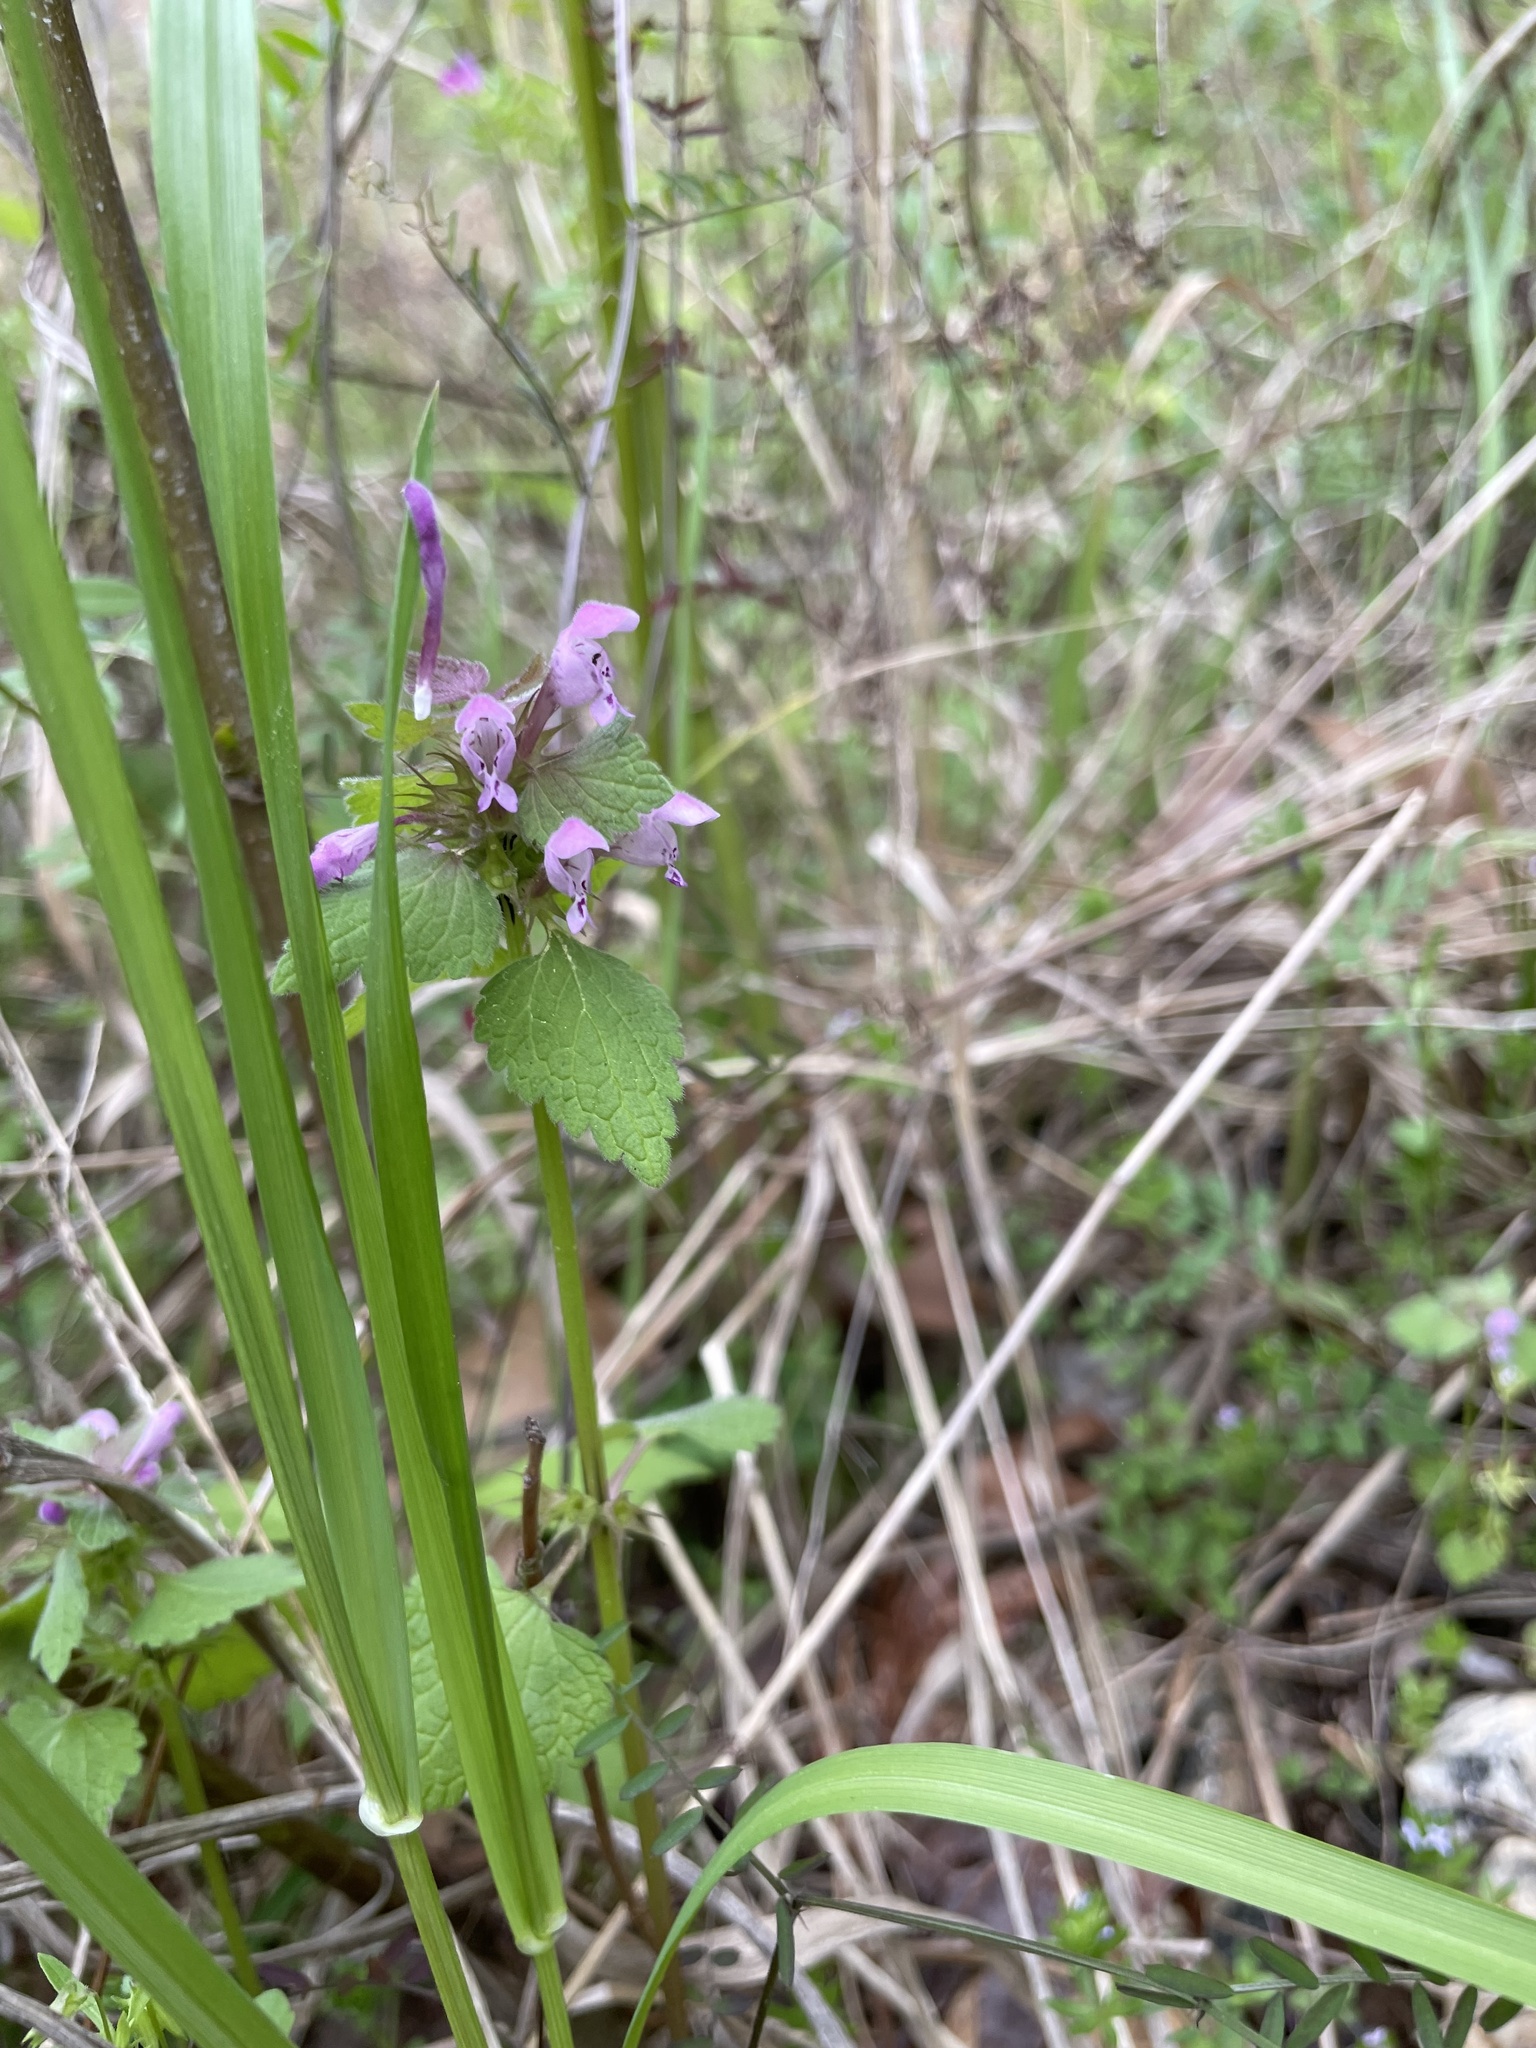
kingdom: Plantae
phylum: Tracheophyta
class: Magnoliopsida
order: Lamiales
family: Lamiaceae
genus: Lamium
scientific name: Lamium purpureum
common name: Red dead-nettle
